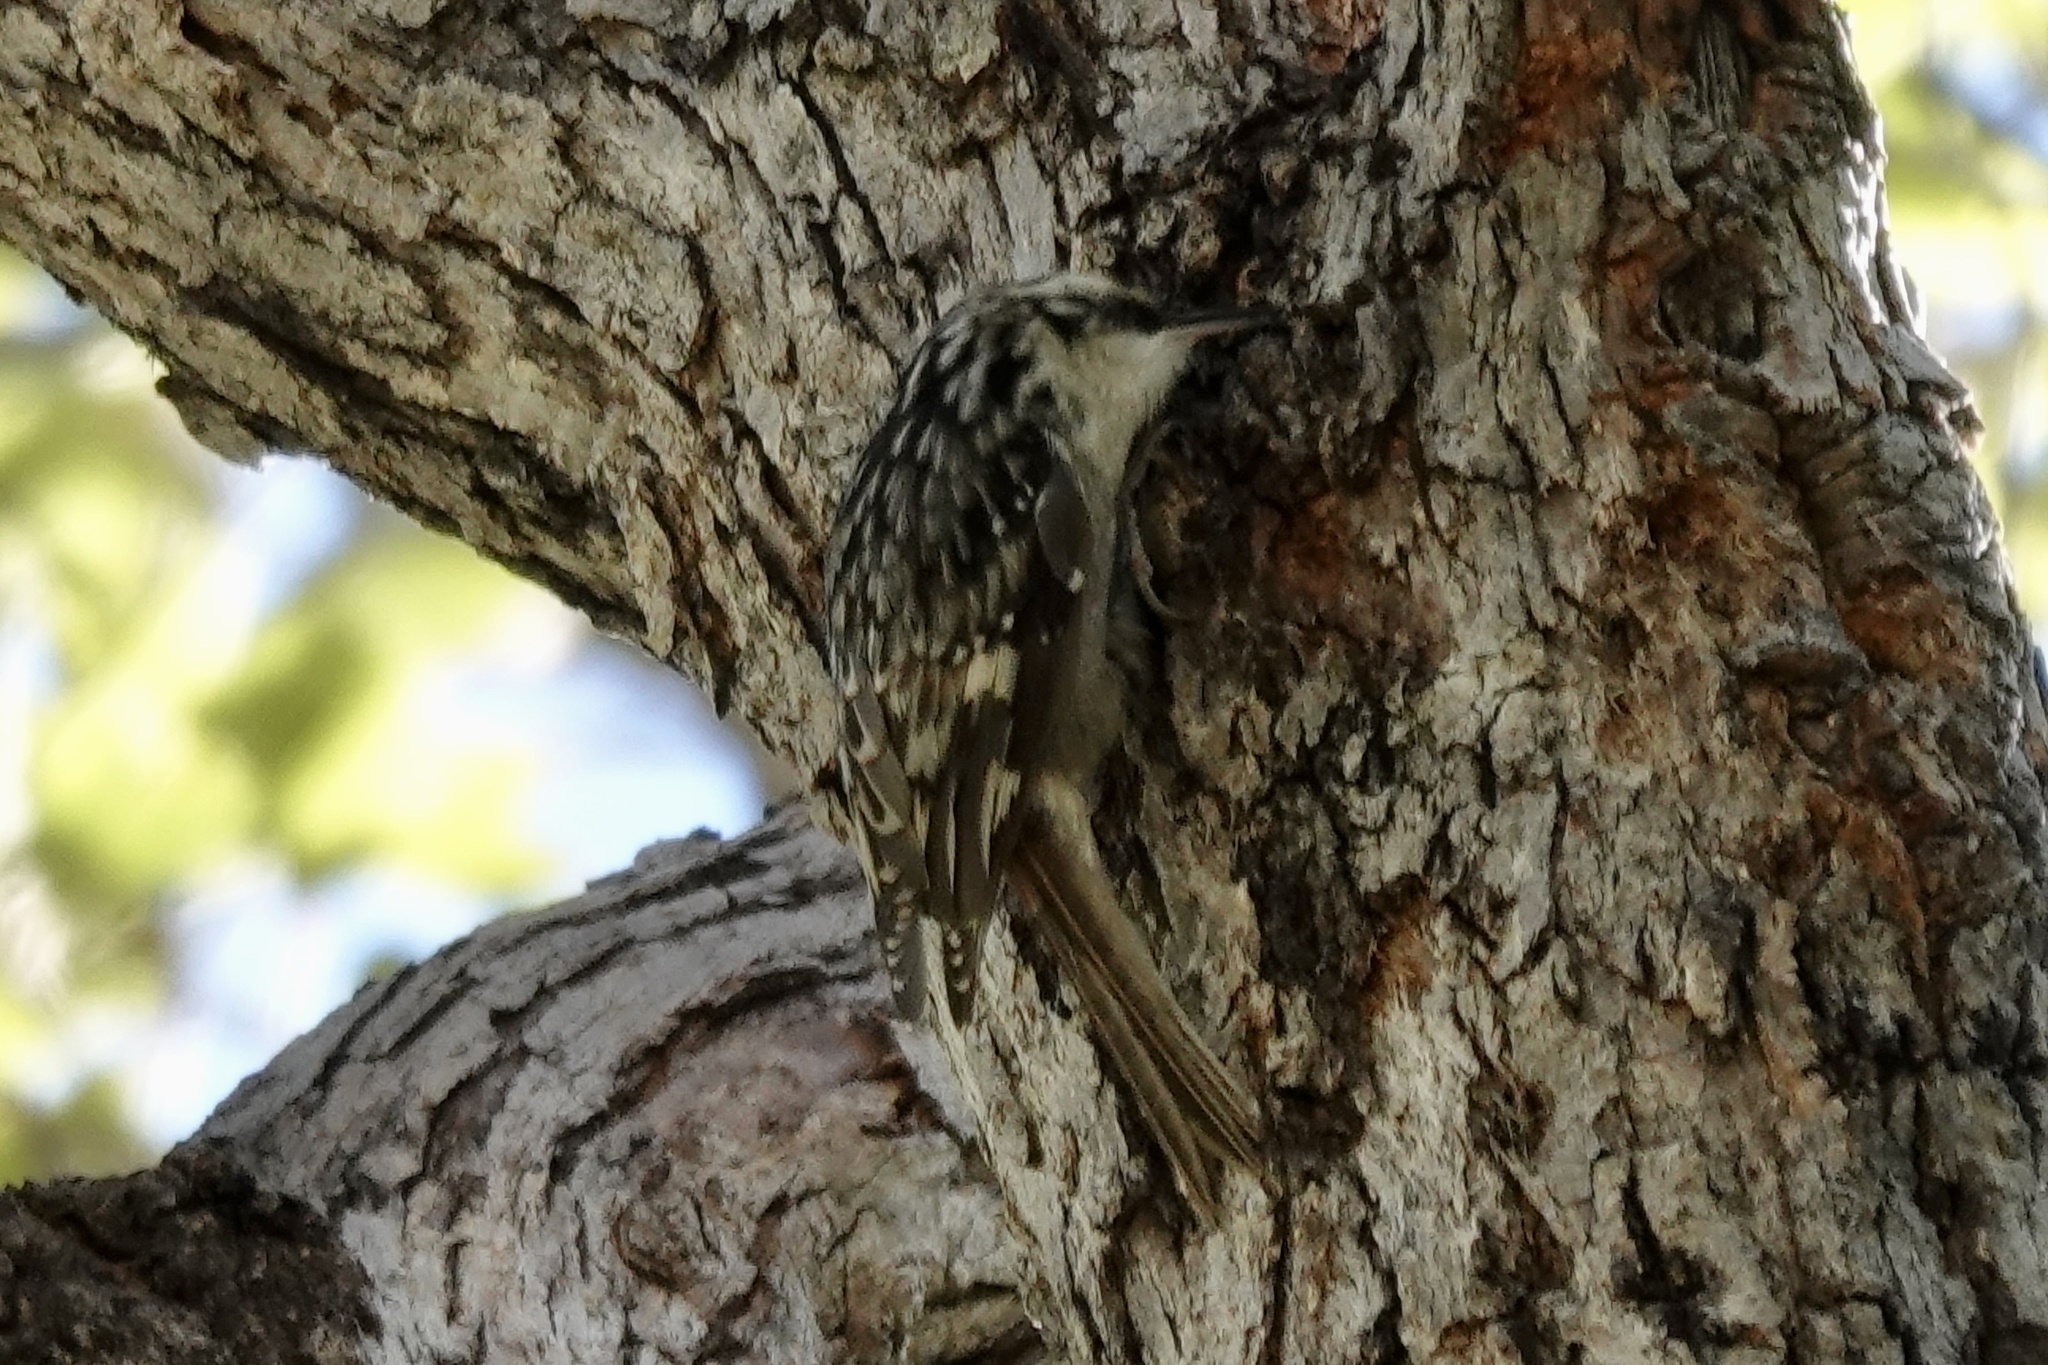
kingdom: Animalia
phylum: Chordata
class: Aves
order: Passeriformes
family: Certhiidae
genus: Certhia
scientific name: Certhia americana
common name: Brown creeper
